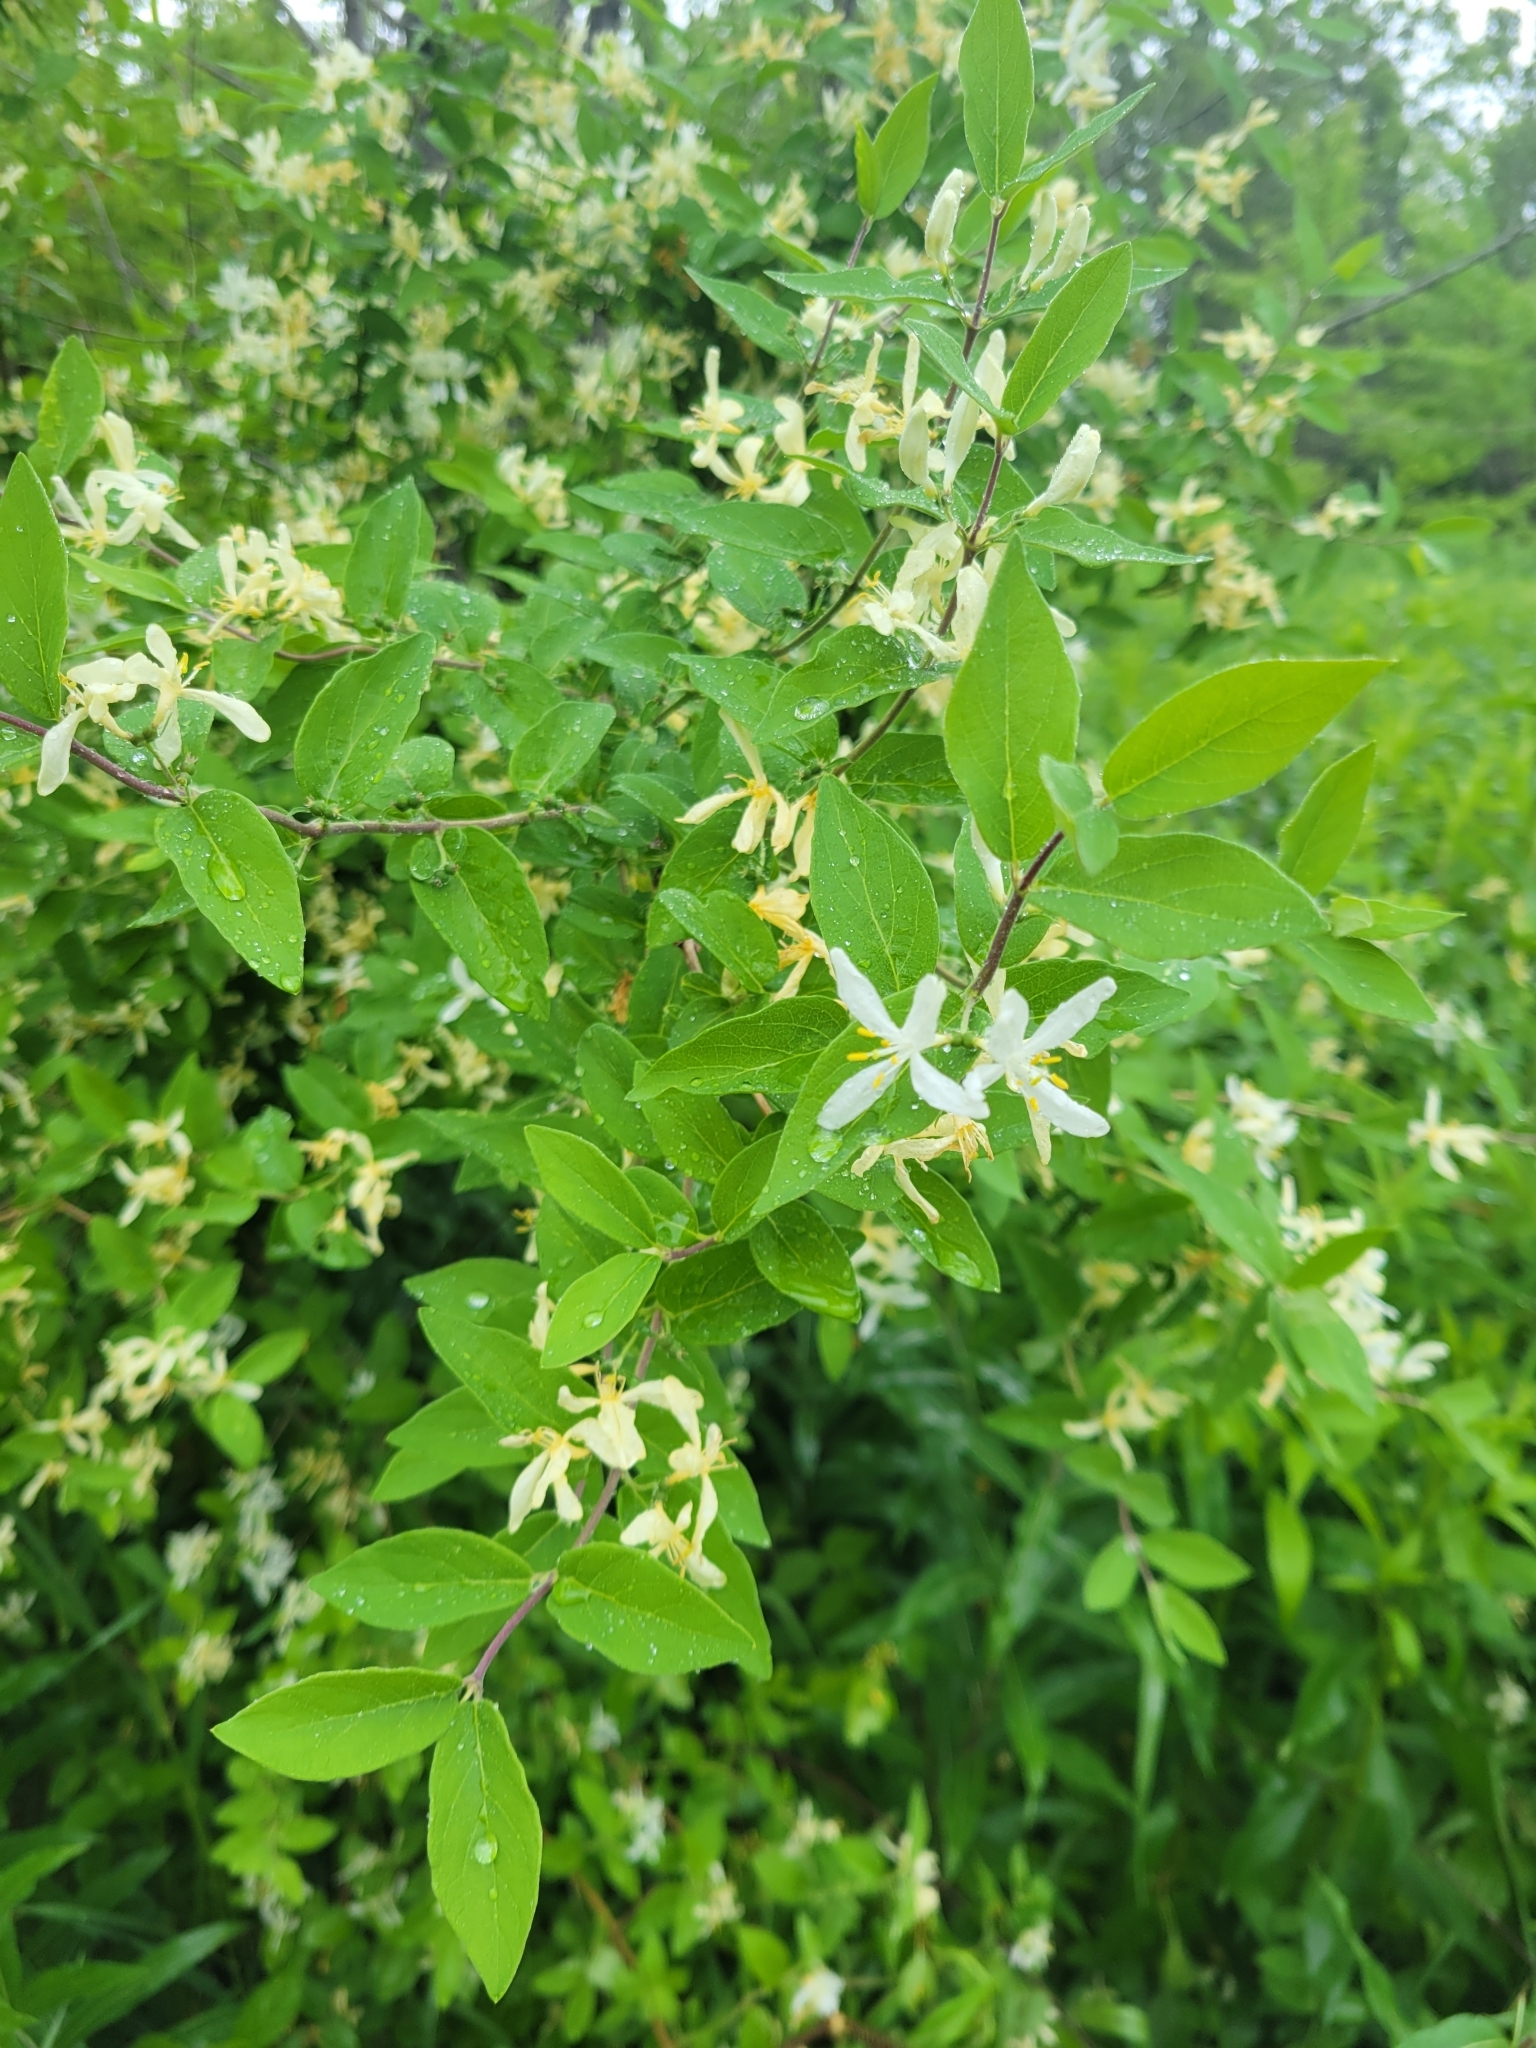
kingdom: Plantae
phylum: Tracheophyta
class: Magnoliopsida
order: Dipsacales
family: Caprifoliaceae
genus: Lonicera
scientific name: Lonicera morrowii
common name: Morrow's honeysuckle
